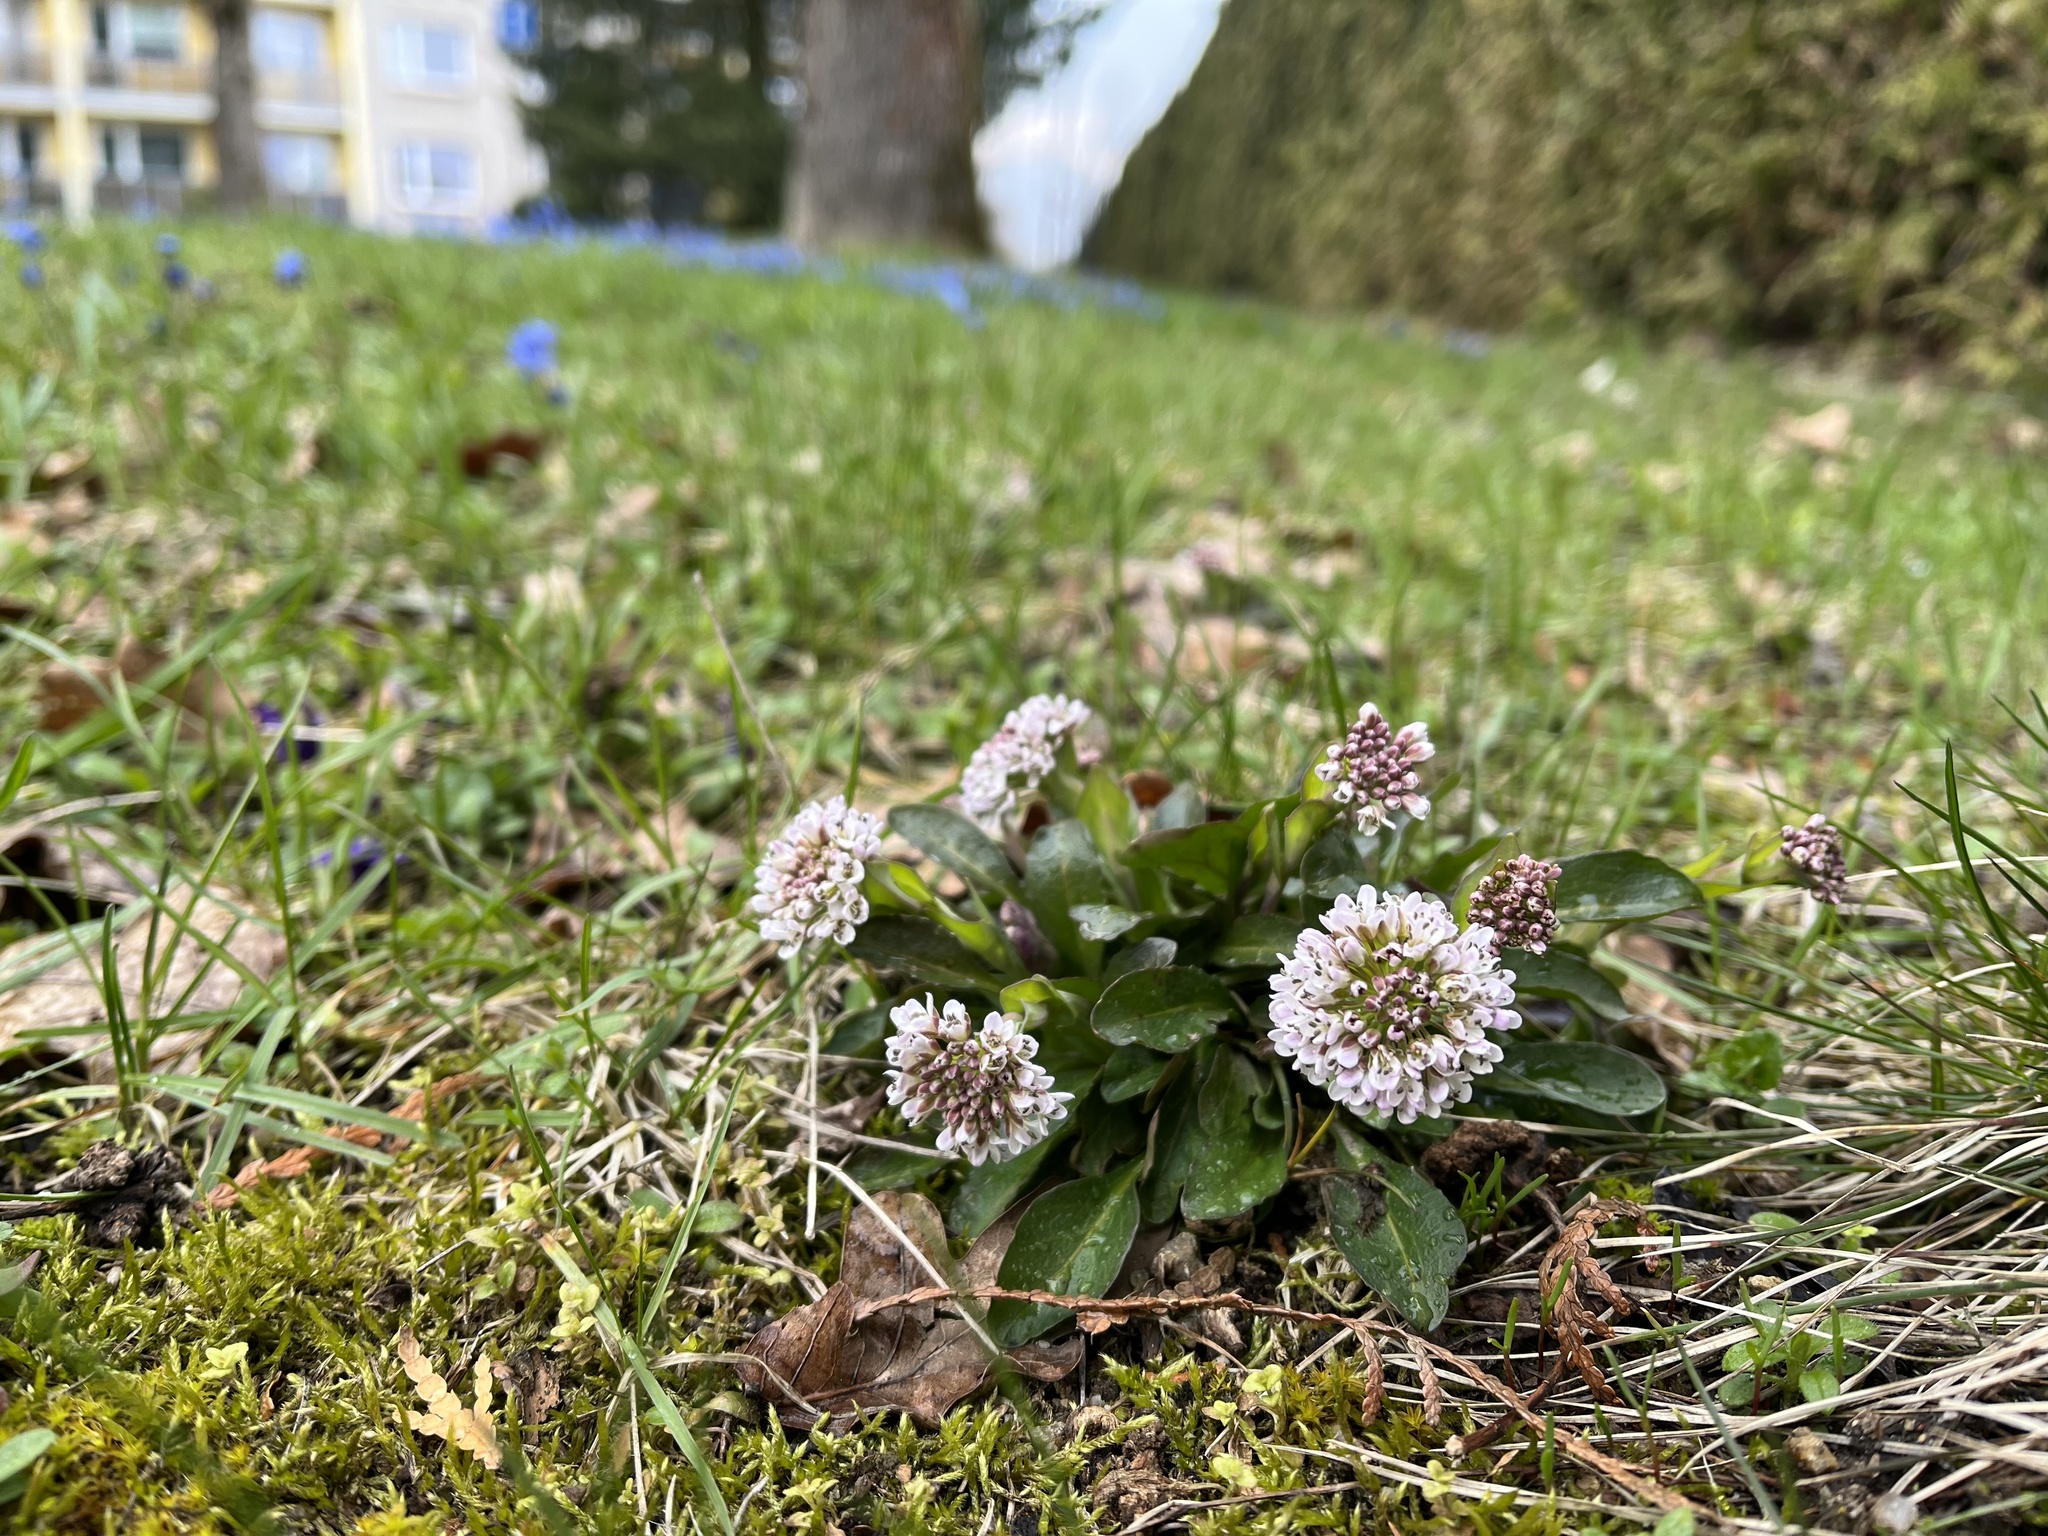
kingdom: Plantae
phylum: Tracheophyta
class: Magnoliopsida
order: Brassicales
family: Brassicaceae
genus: Noccaea
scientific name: Noccaea caerulescens
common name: Alpine pennycress
